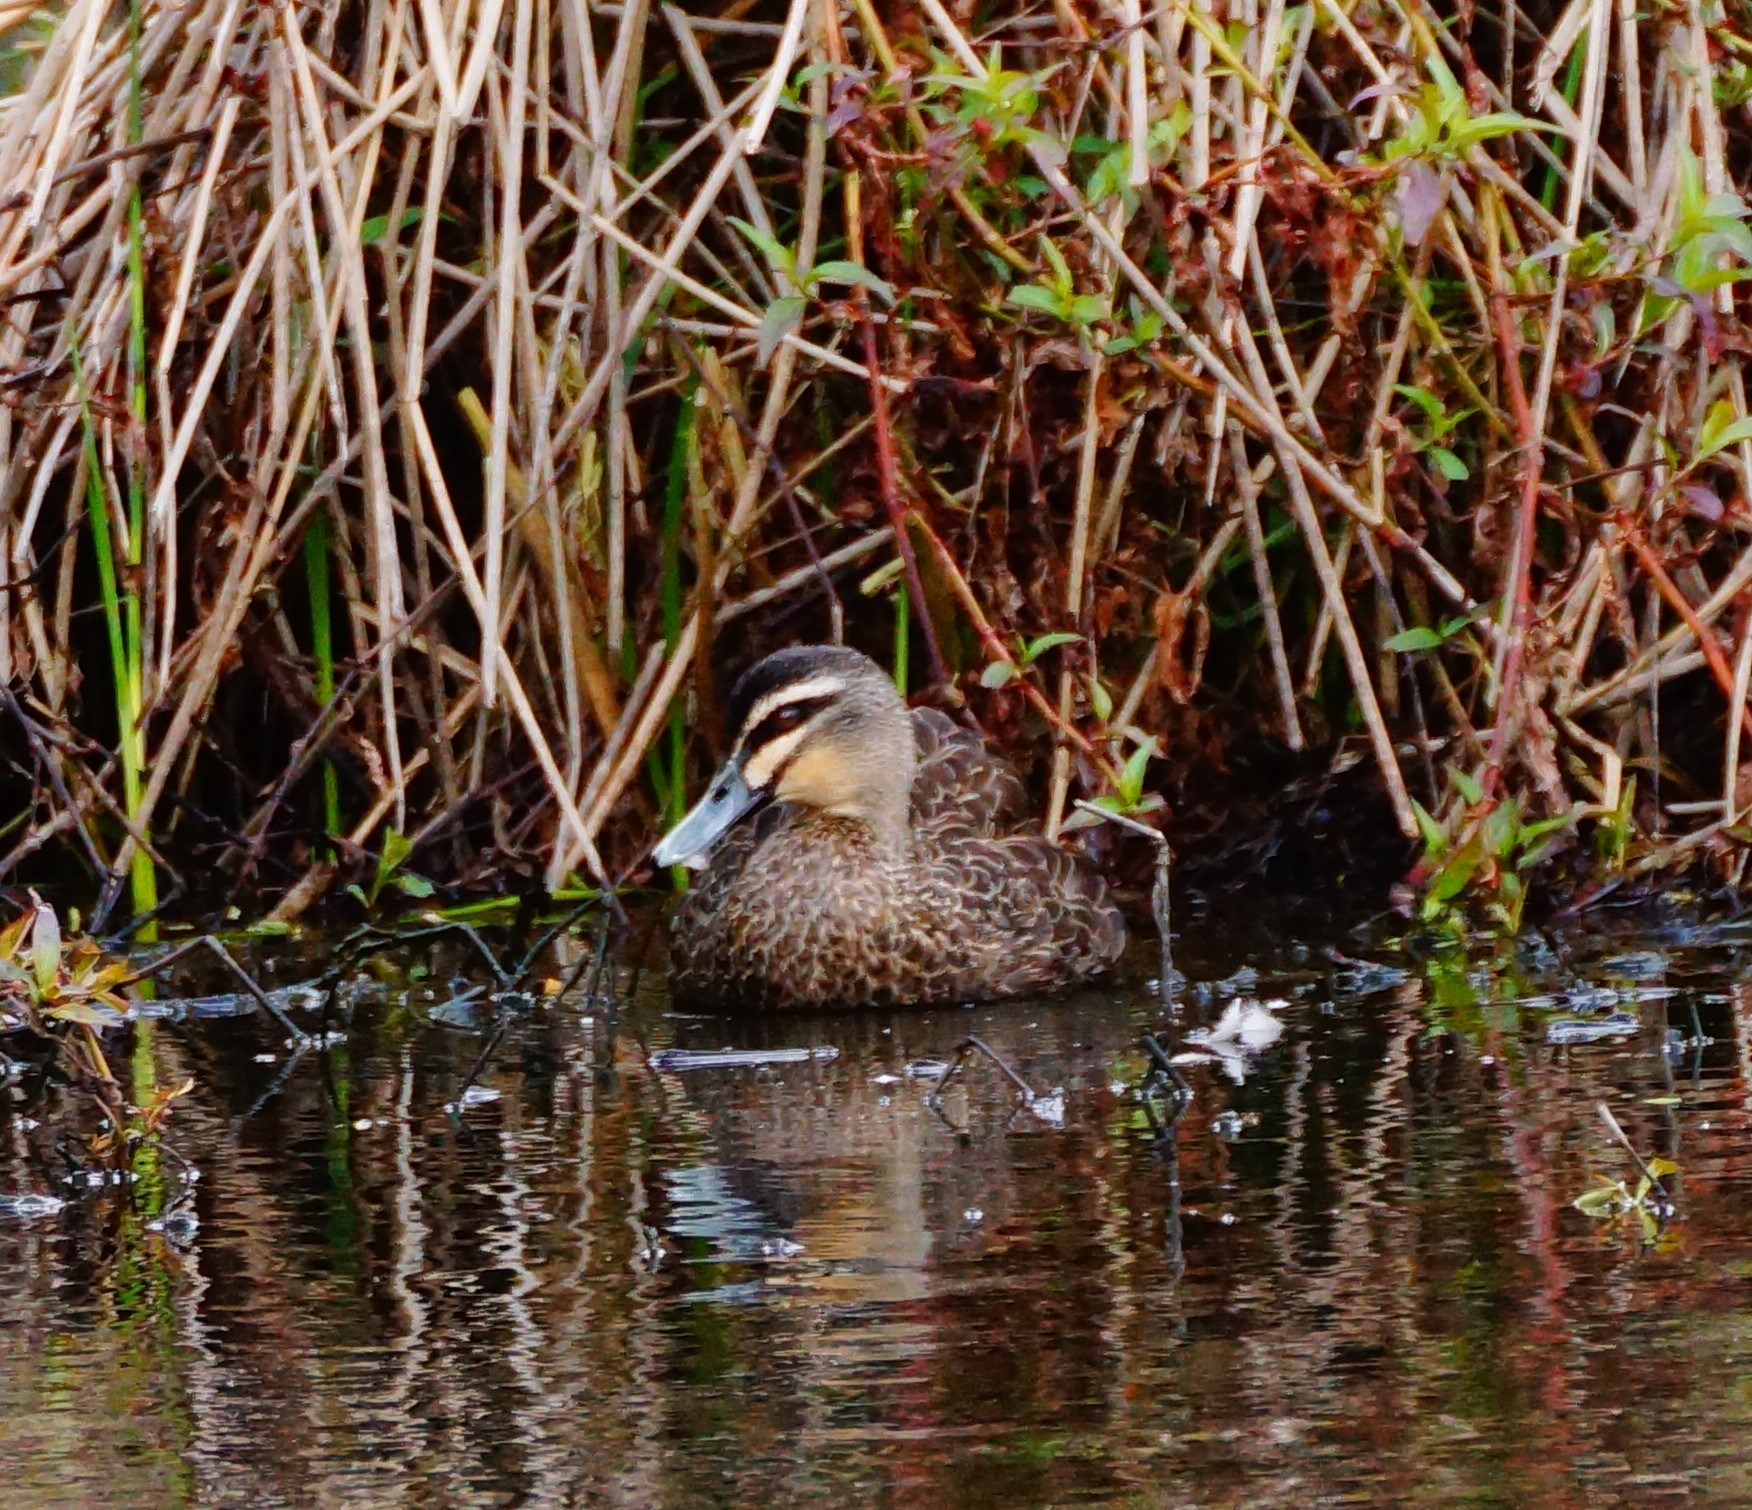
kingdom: Animalia
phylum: Chordata
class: Aves
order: Anseriformes
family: Anatidae
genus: Anas
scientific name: Anas superciliosa
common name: Pacific black duck
